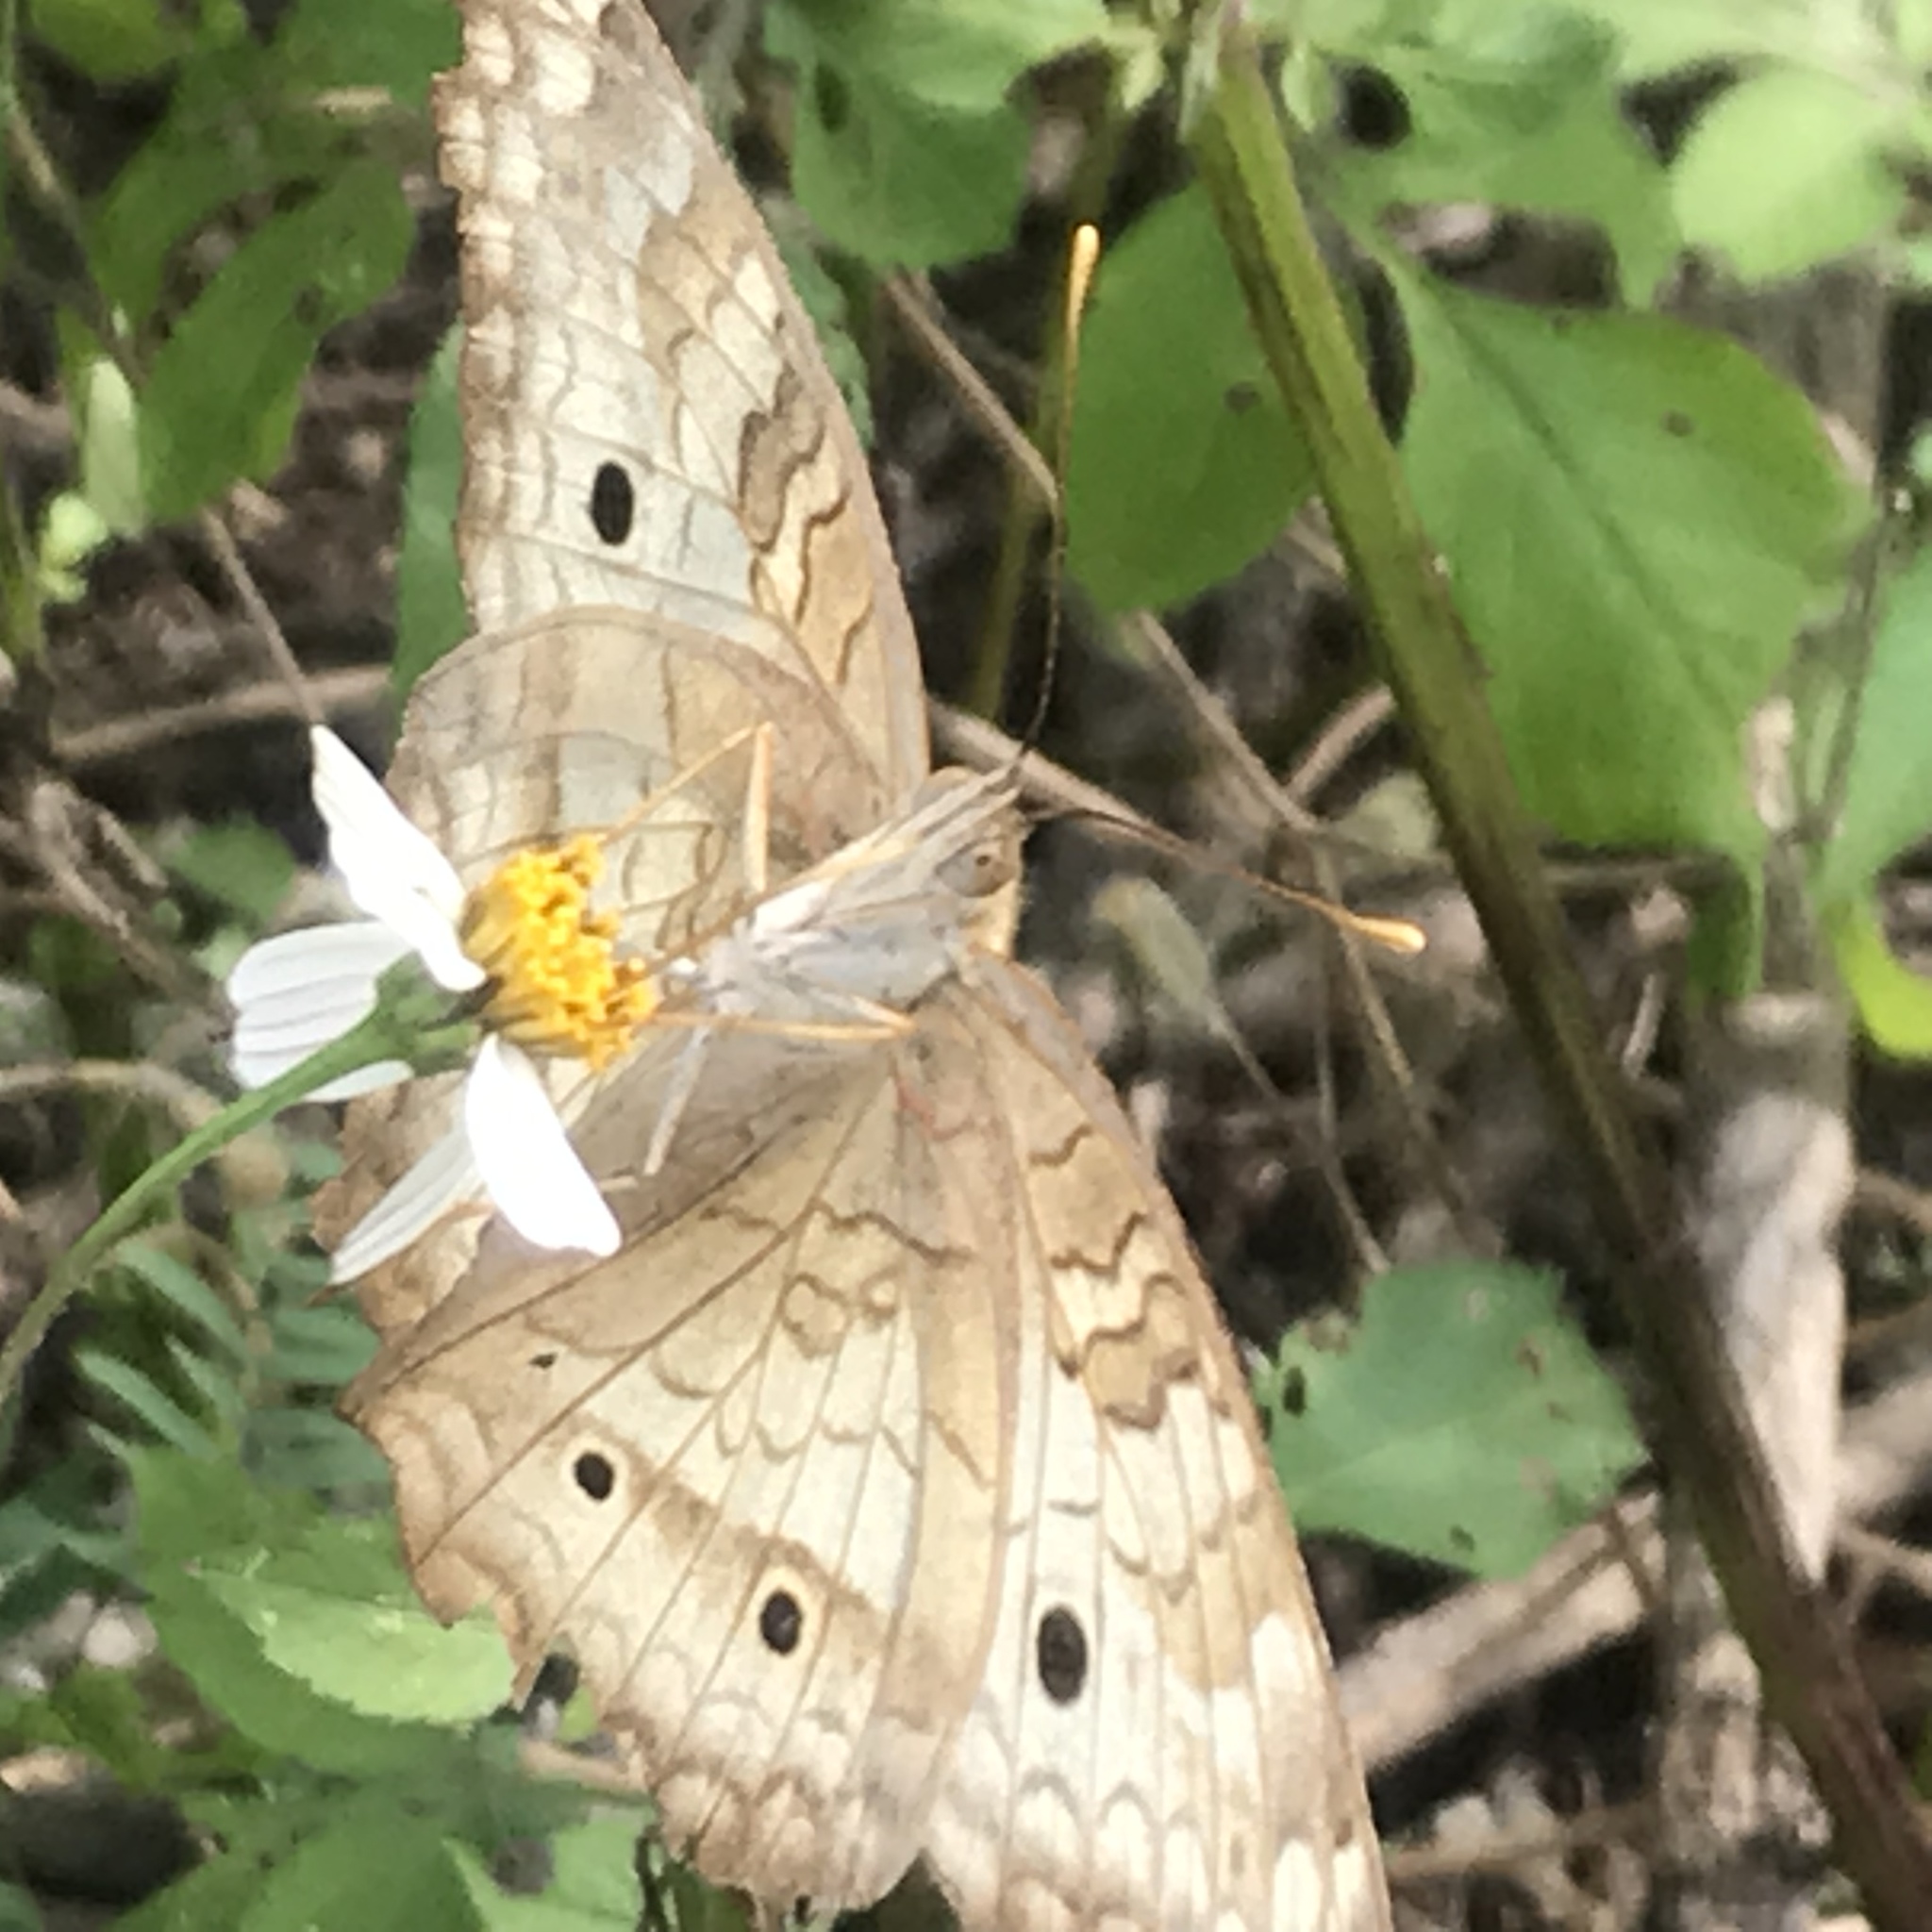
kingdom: Animalia
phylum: Arthropoda
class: Insecta
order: Lepidoptera
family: Nymphalidae
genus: Anartia
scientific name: Anartia jatrophae
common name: White peacock
